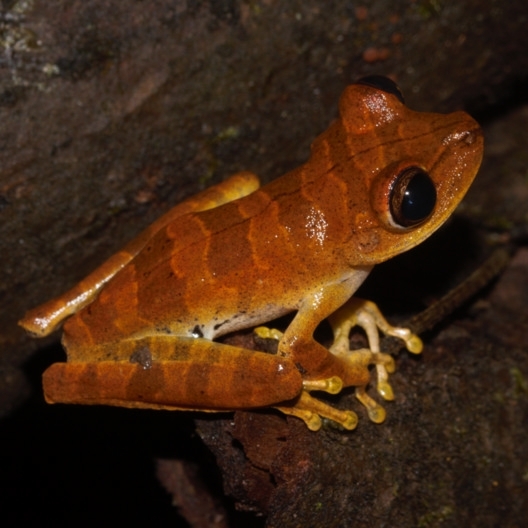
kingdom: Animalia
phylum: Chordata
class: Amphibia
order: Anura
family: Hylidae
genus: Boana
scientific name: Boana courtoisae
